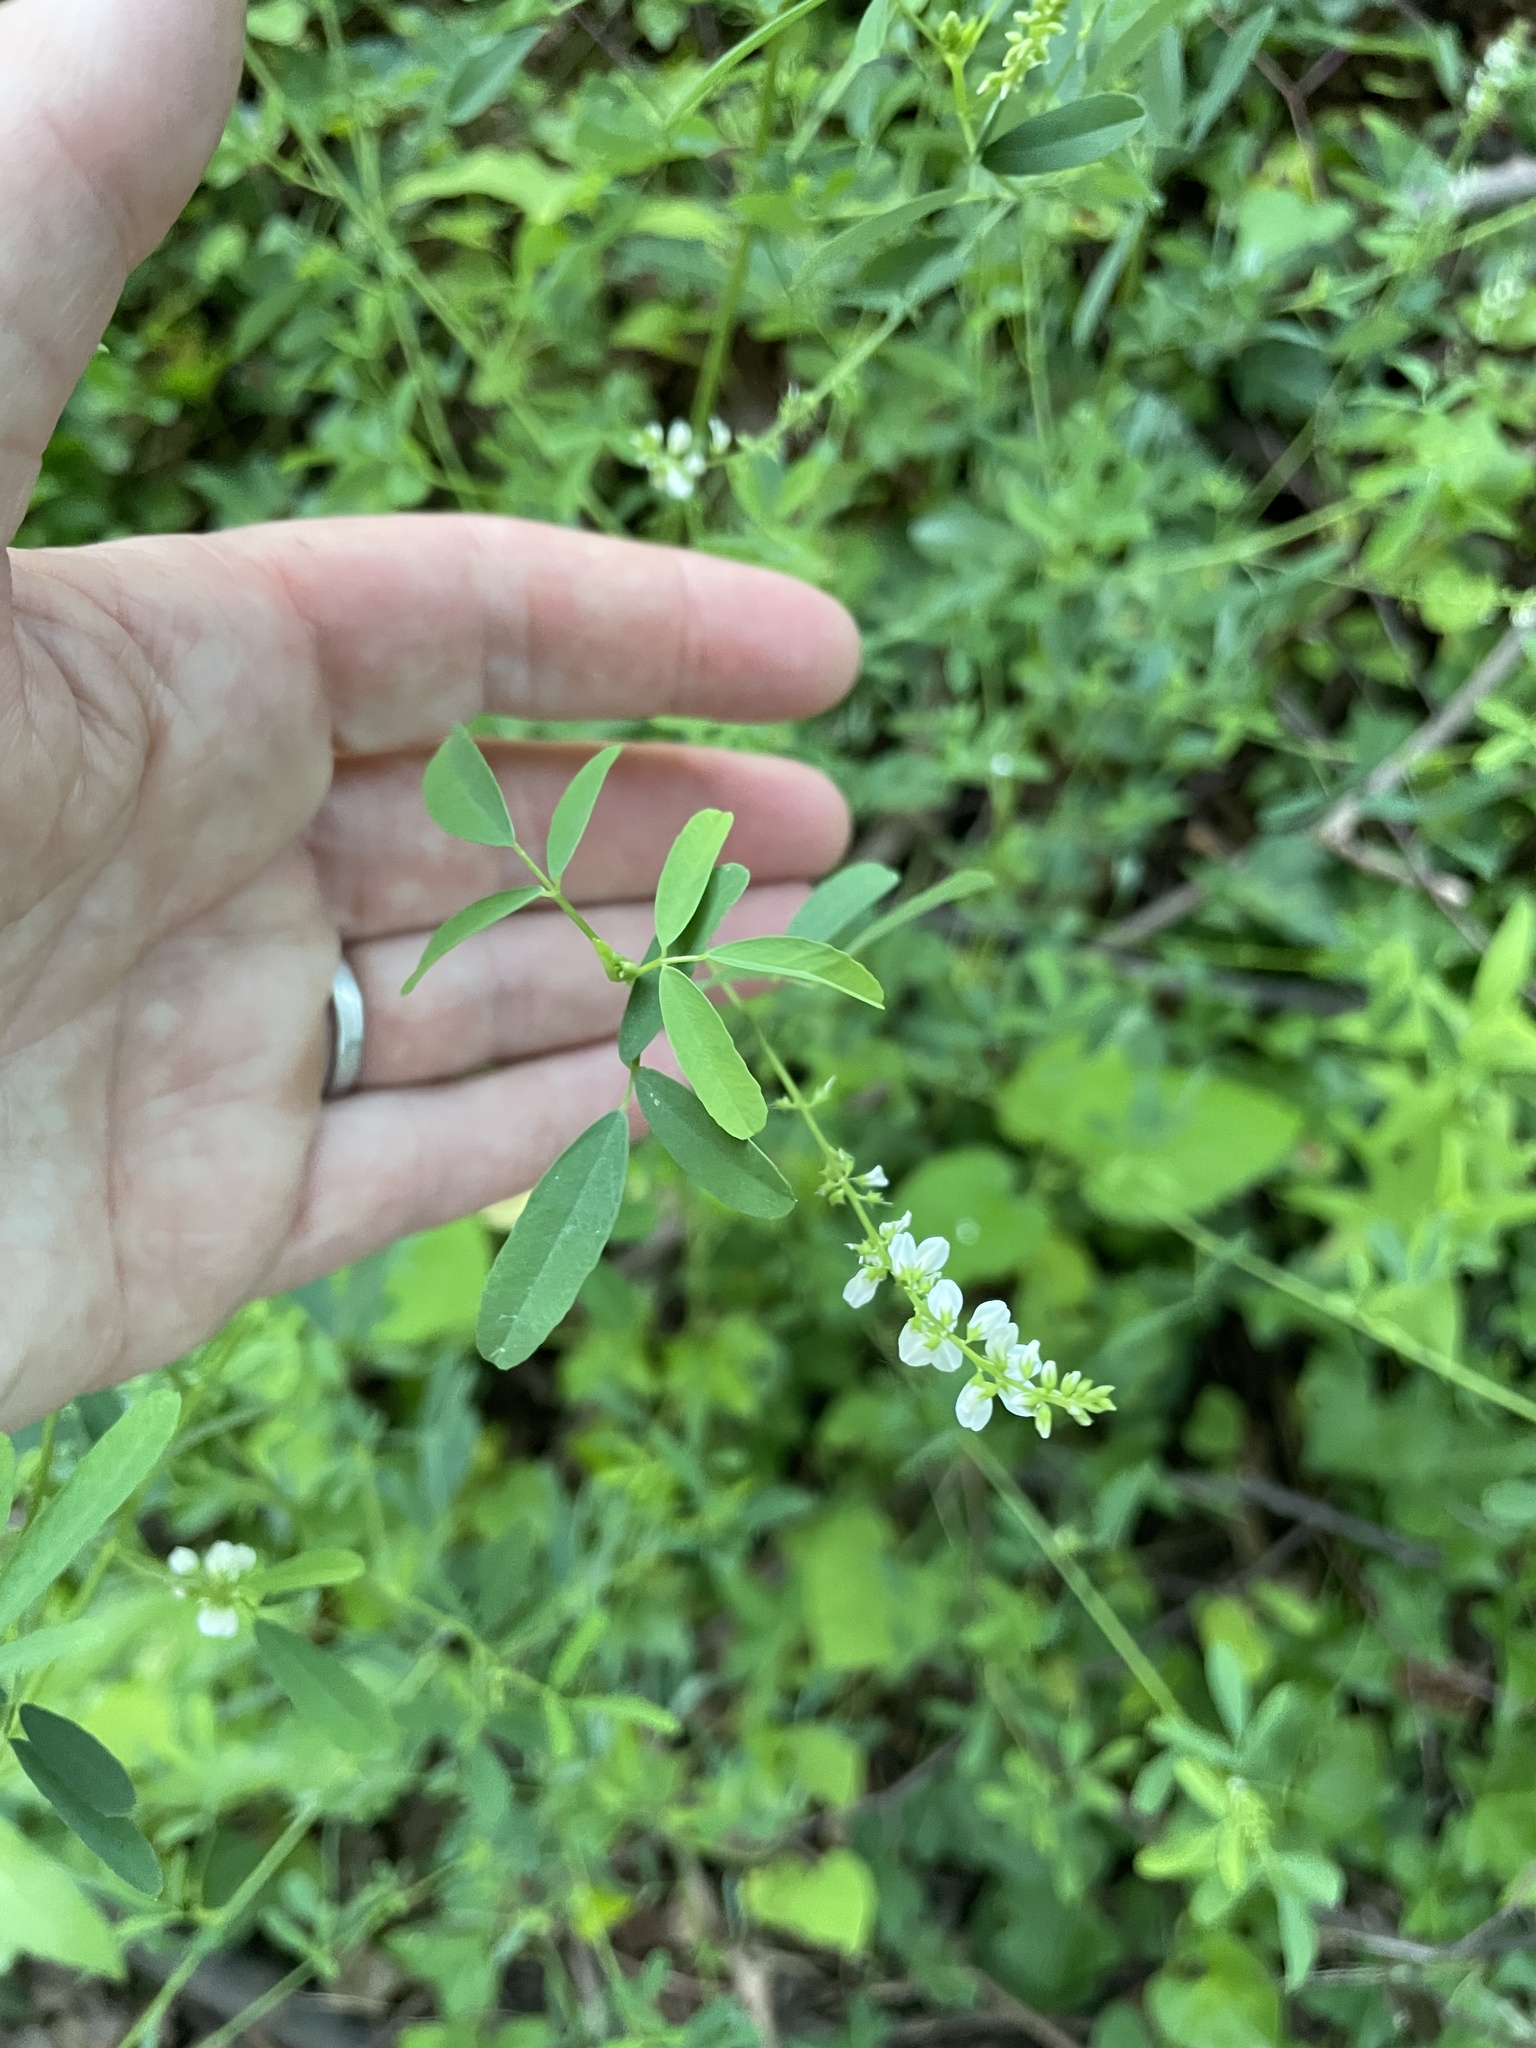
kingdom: Plantae
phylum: Tracheophyta
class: Magnoliopsida
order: Fabales
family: Fabaceae
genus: Melilotus
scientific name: Melilotus albus
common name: White melilot
